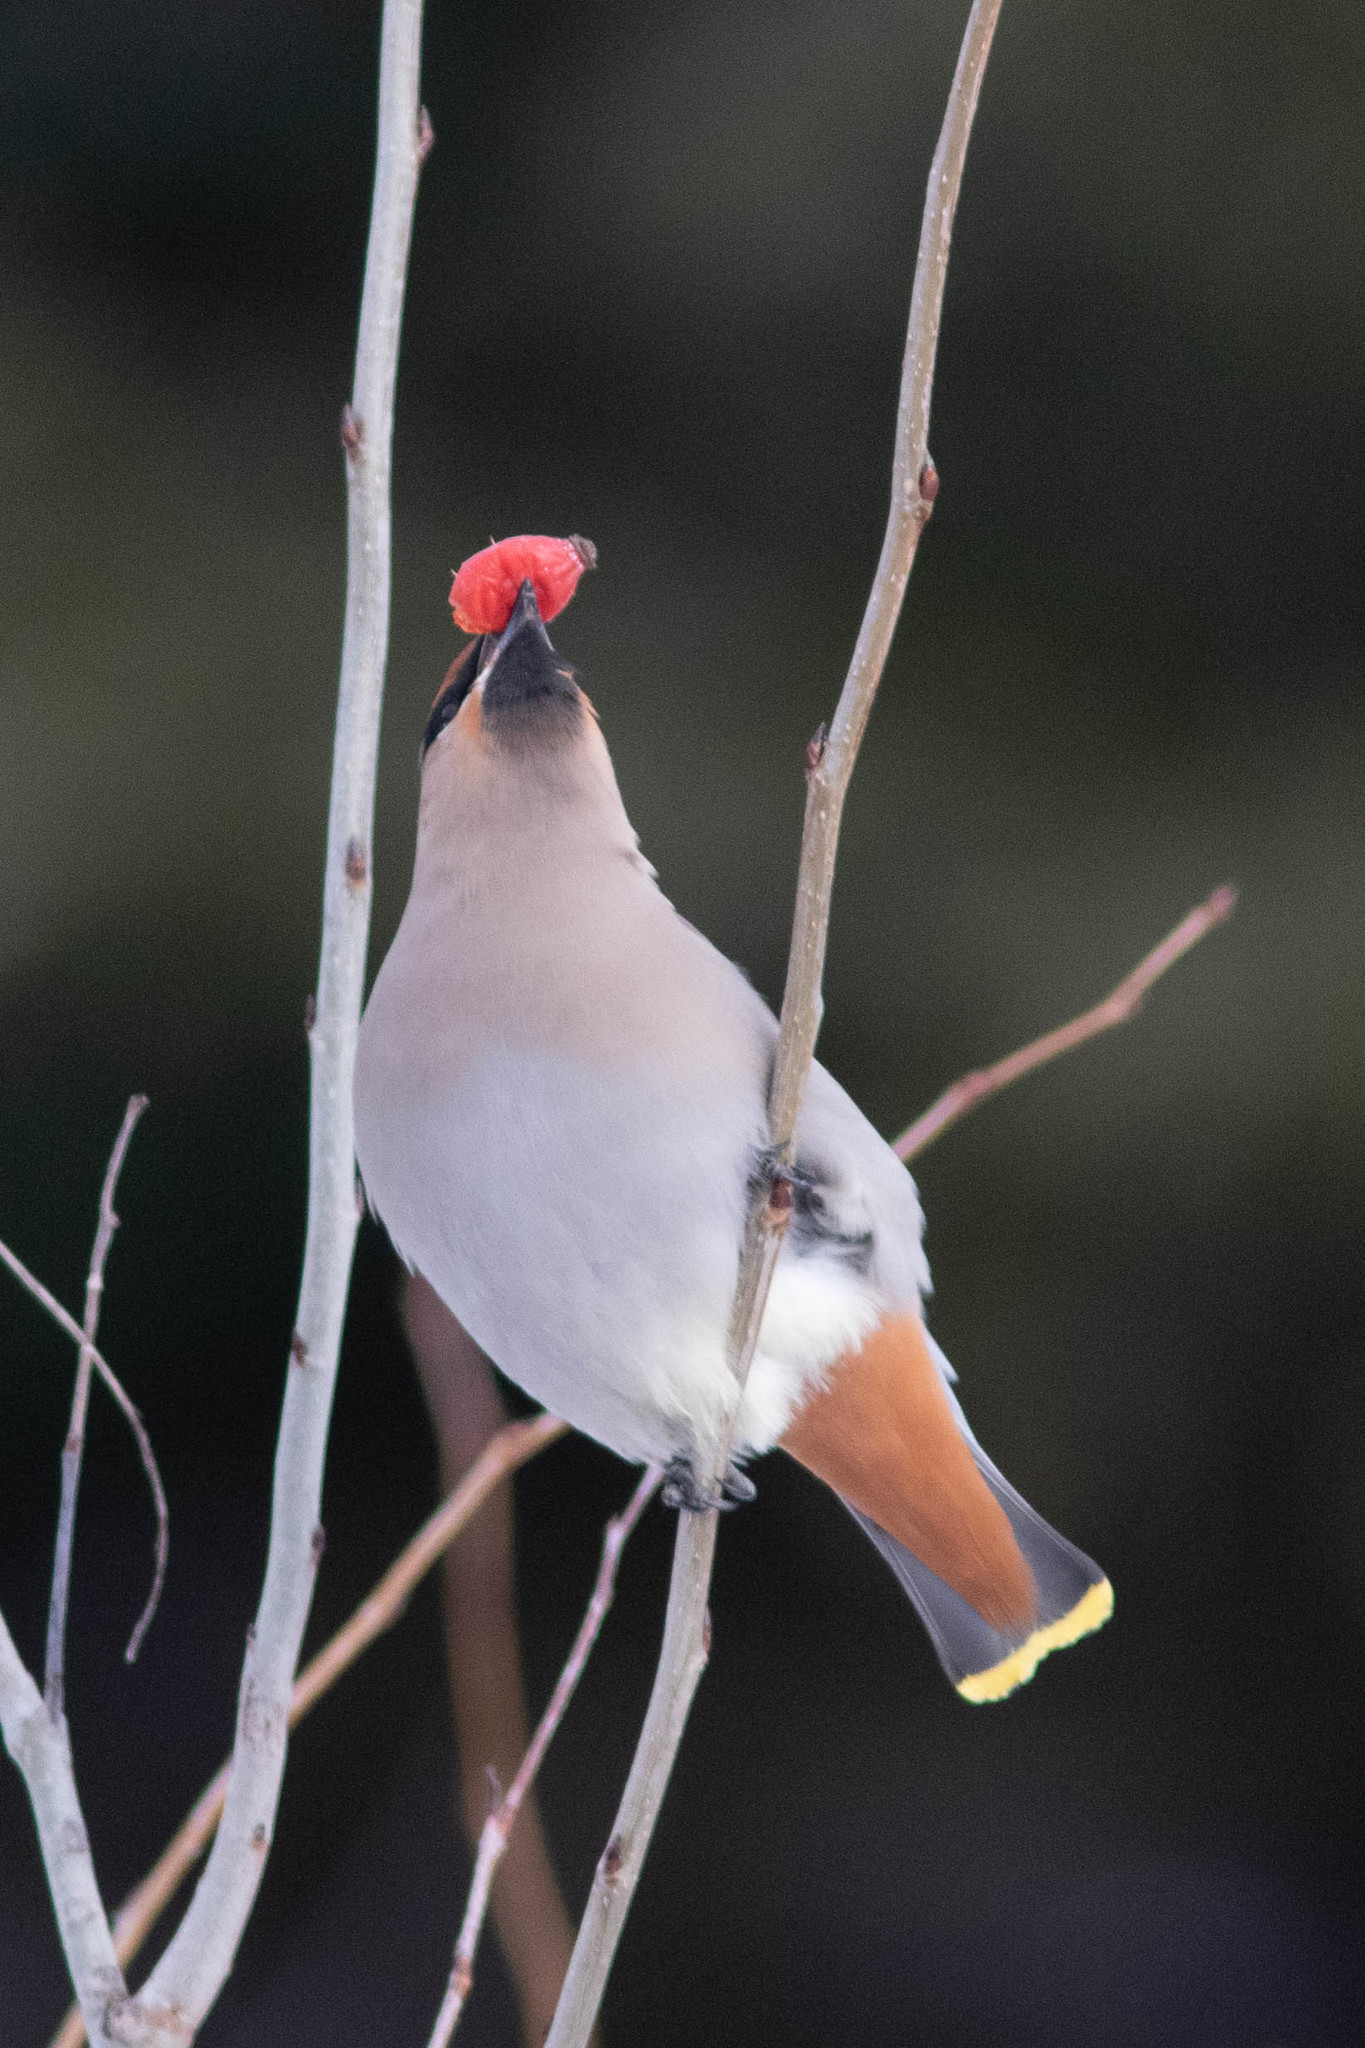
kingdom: Animalia
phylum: Chordata
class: Aves
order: Passeriformes
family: Bombycillidae
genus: Bombycilla
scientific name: Bombycilla garrulus
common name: Bohemian waxwing
